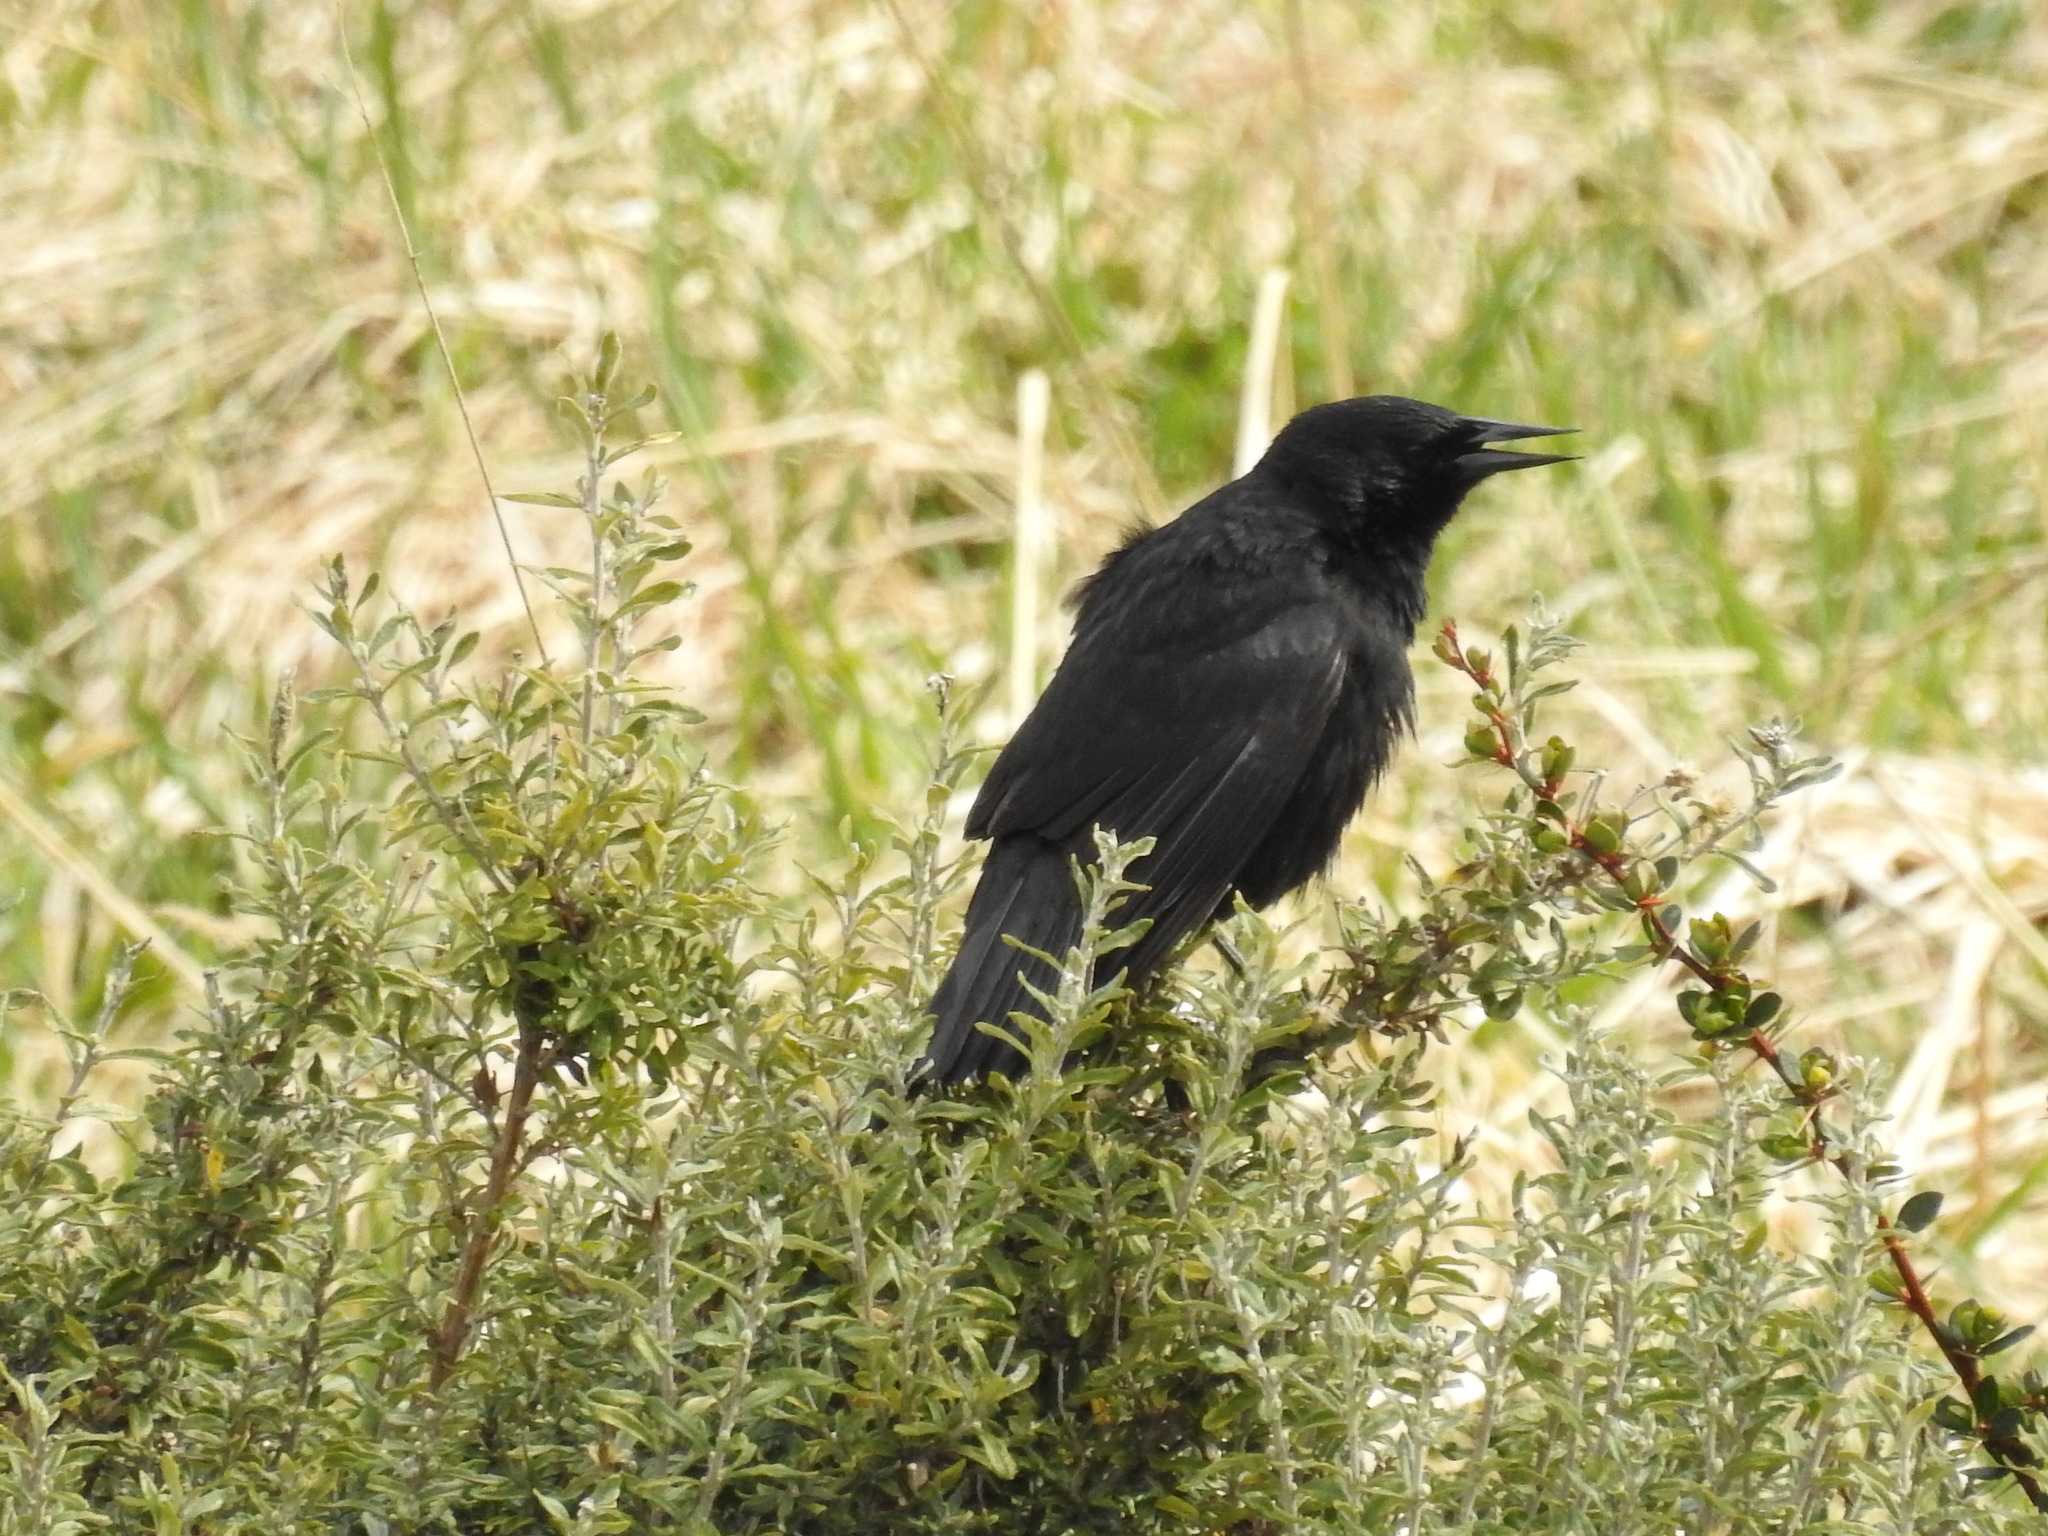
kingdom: Animalia
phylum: Chordata
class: Aves
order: Passeriformes
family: Icteridae
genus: Curaeus
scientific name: Curaeus curaeus
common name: Austral blackbird
